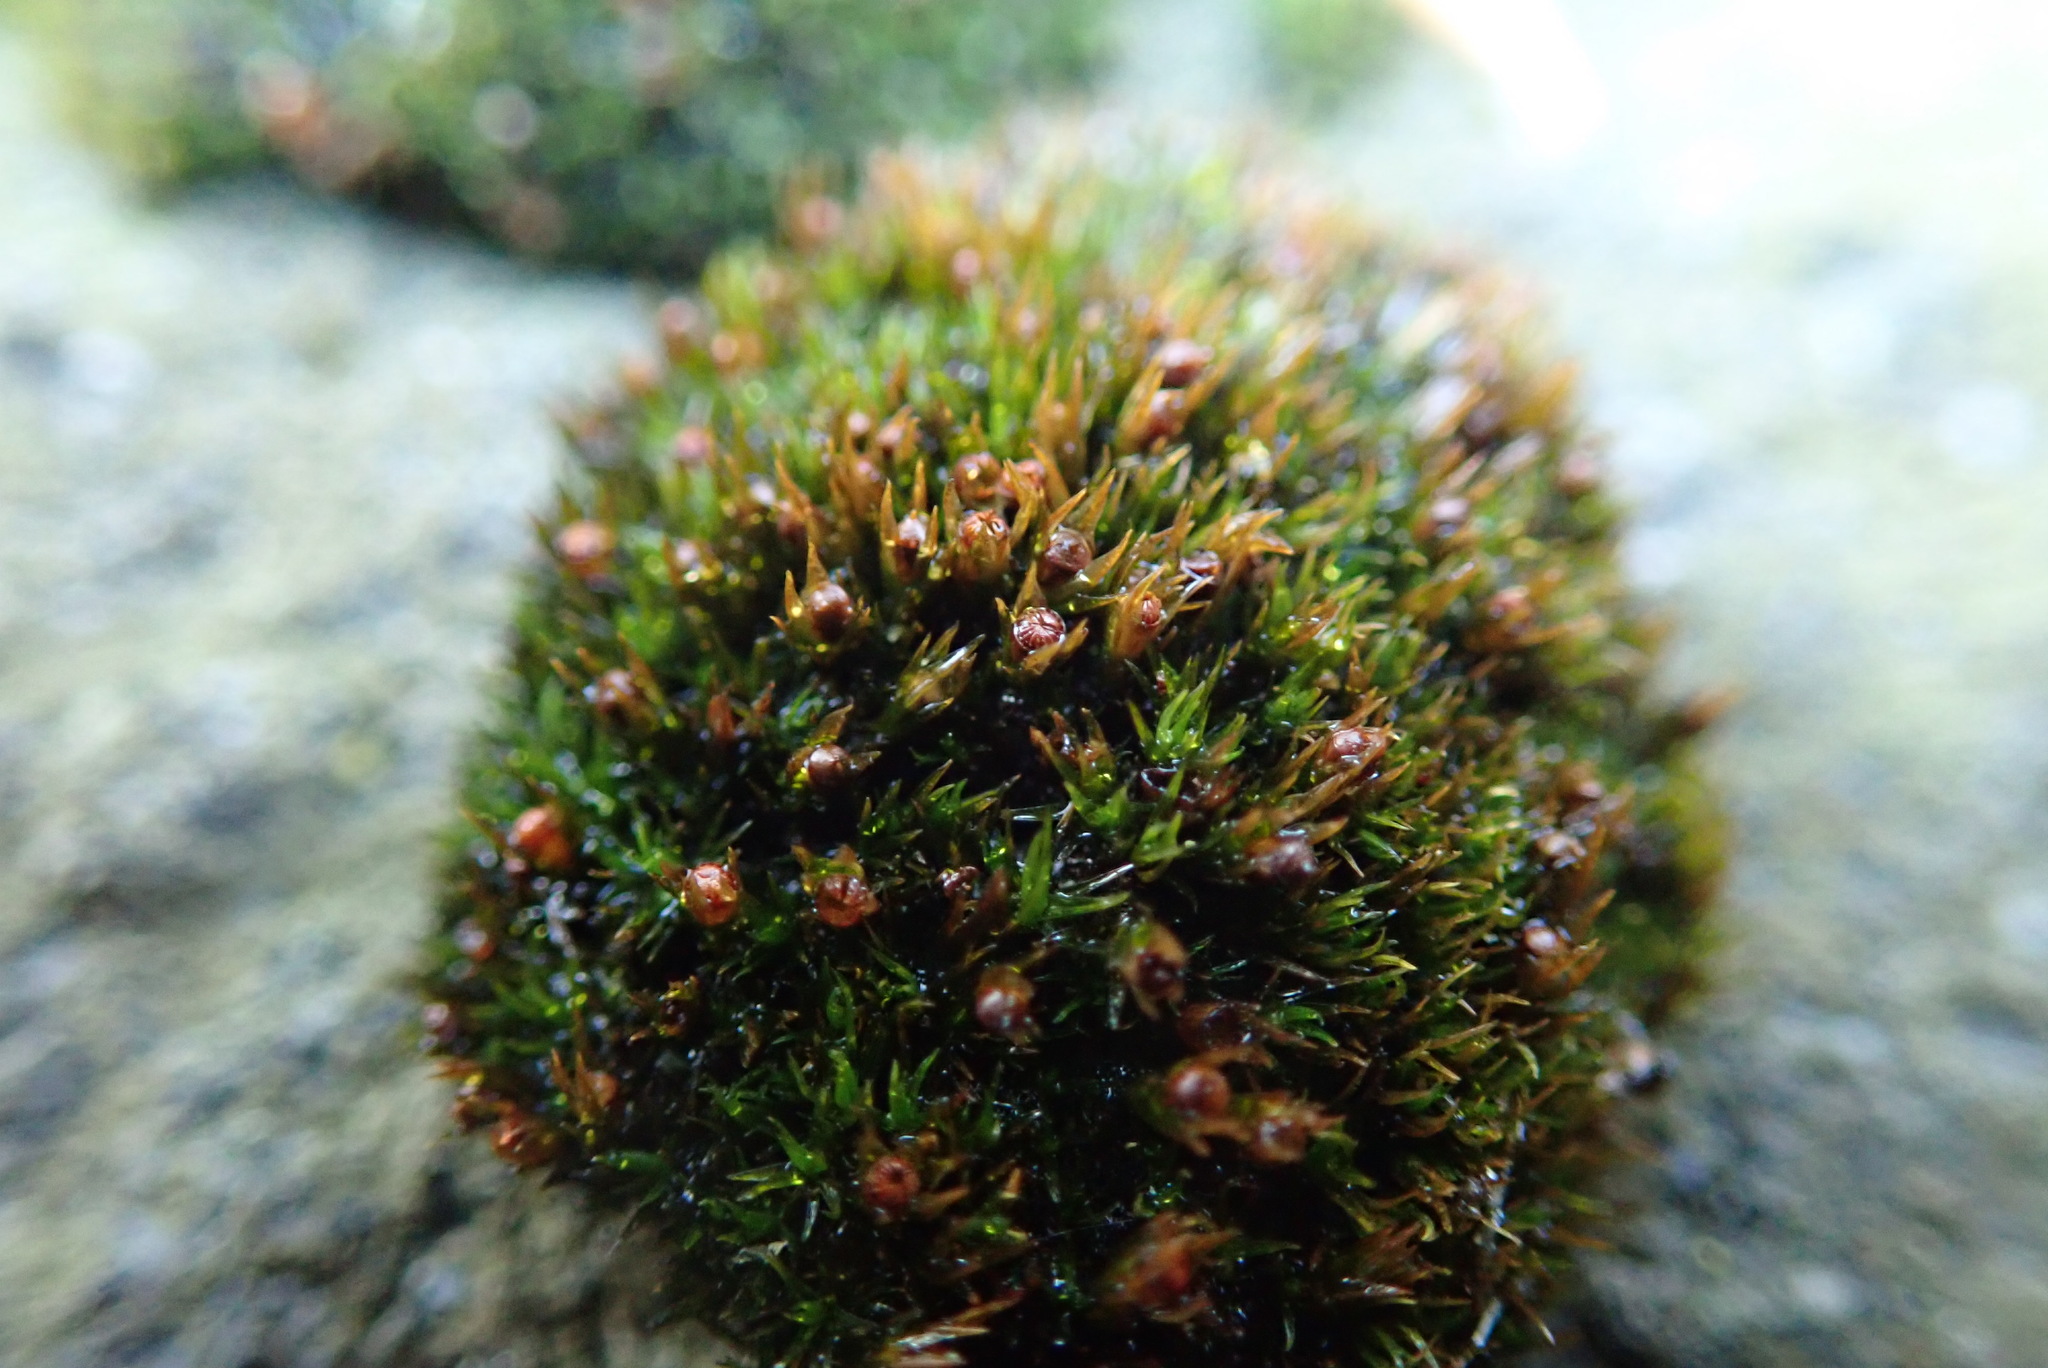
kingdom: Plantae
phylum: Bryophyta
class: Bryopsida
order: Grimmiales
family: Grimmiaceae
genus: Schistidium
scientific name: Schistidium maritimum
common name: Seaside bloom moss
